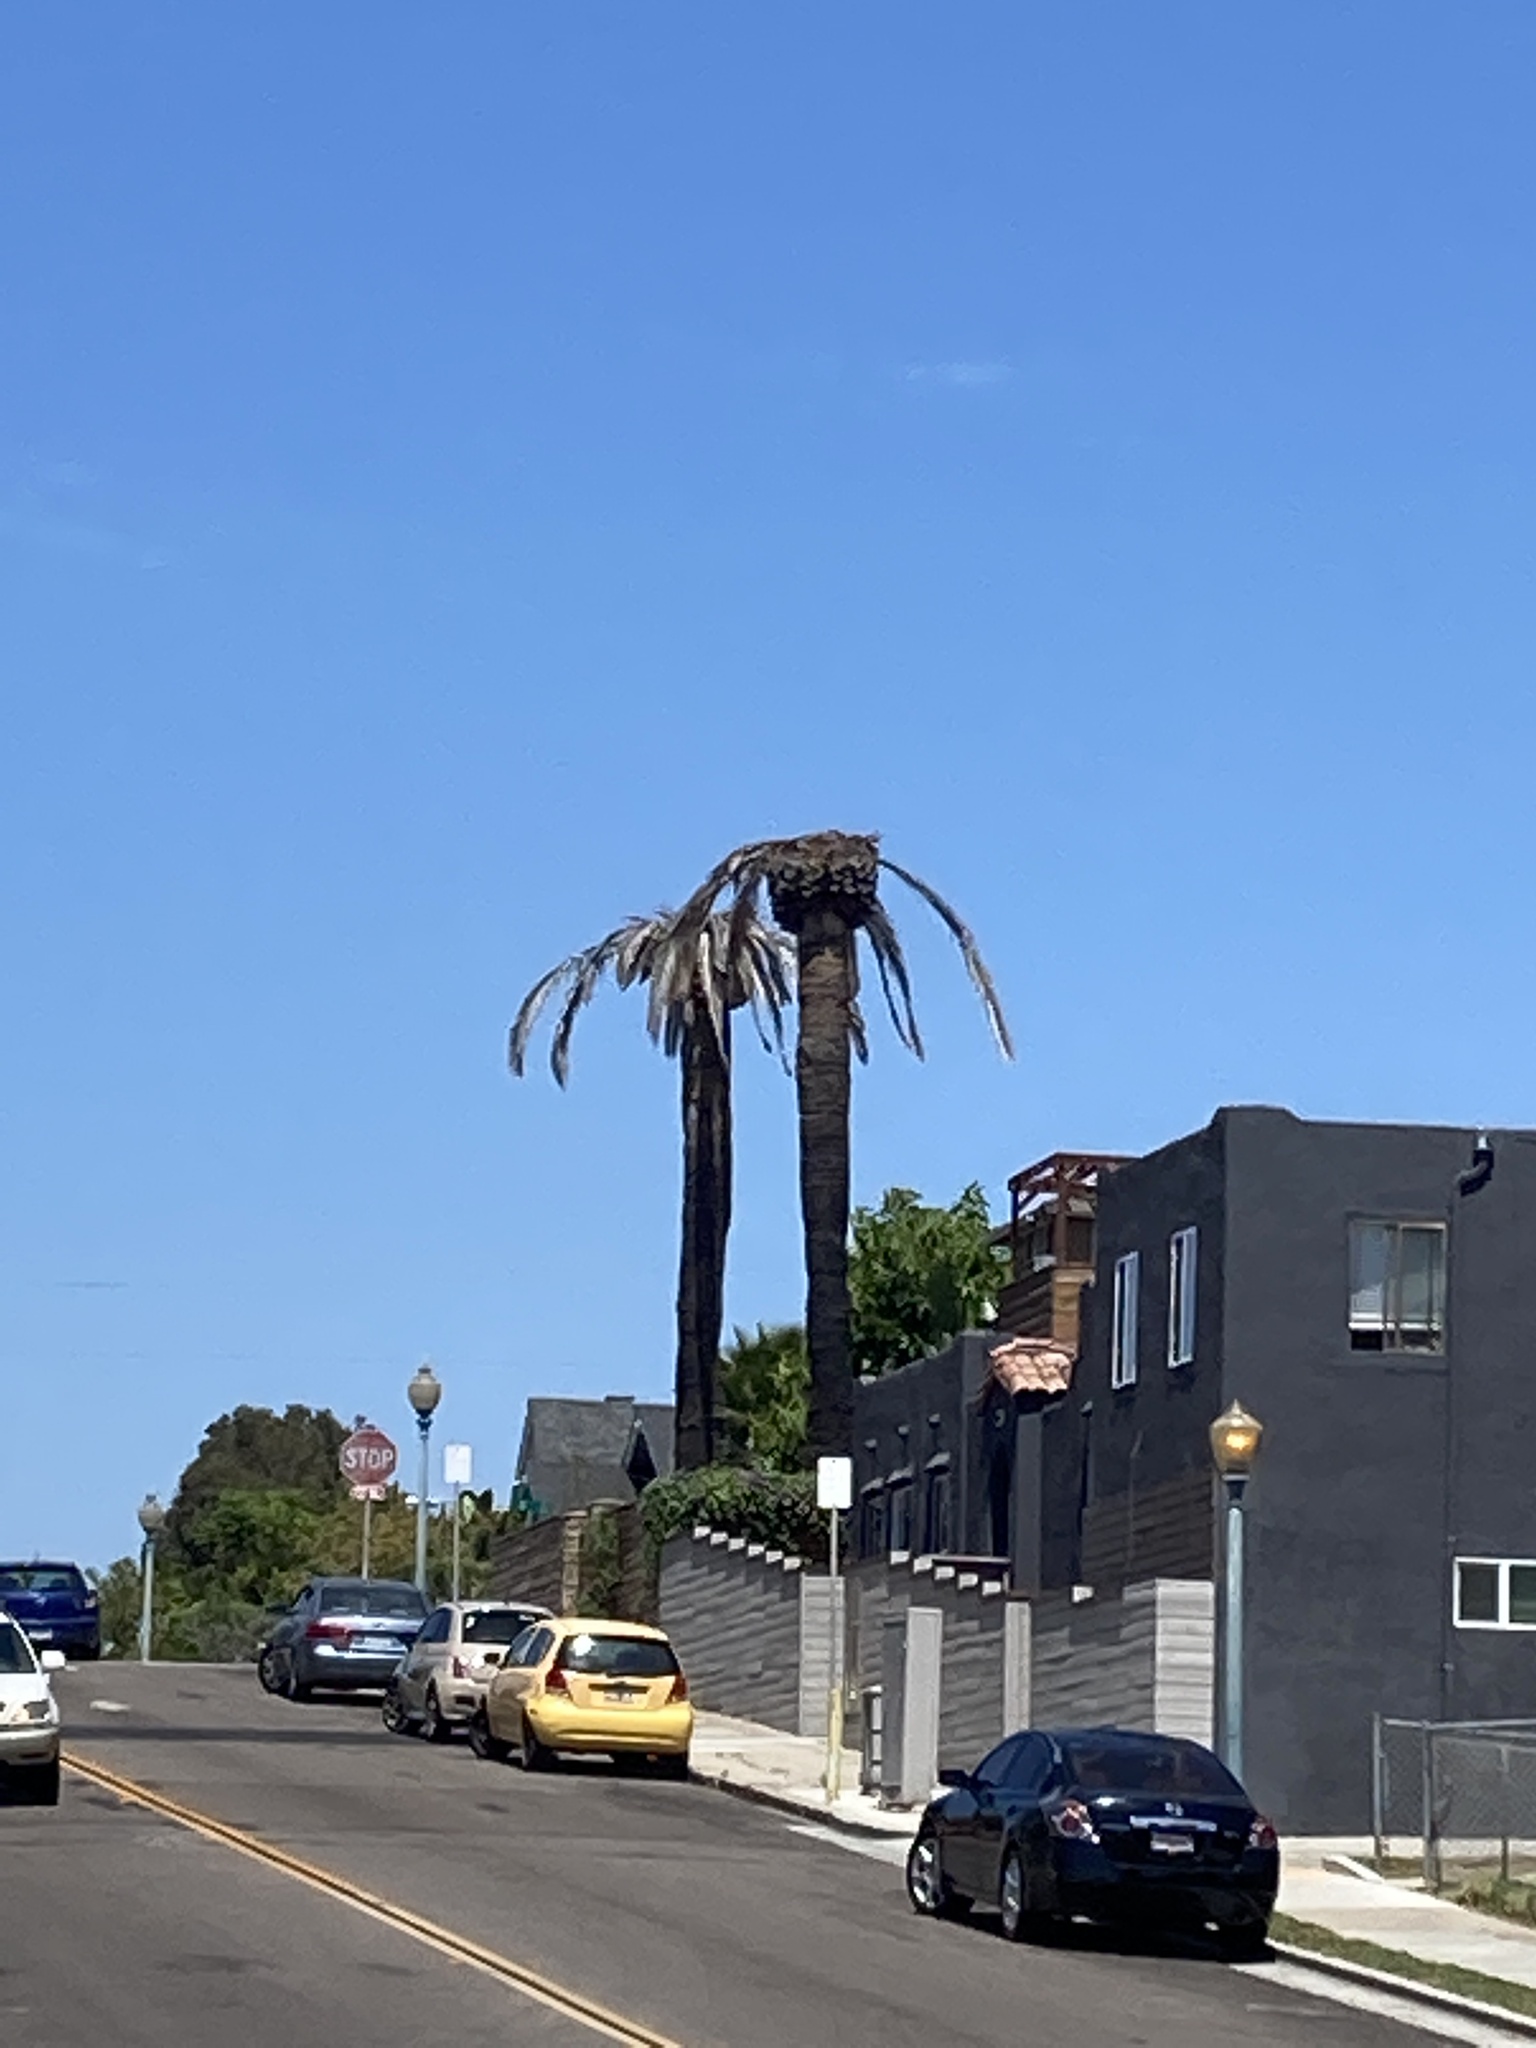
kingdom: Animalia
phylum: Arthropoda
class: Insecta
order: Coleoptera
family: Dryophthoridae
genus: Rhynchophorus
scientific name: Rhynchophorus palmarum
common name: Palm weevil
